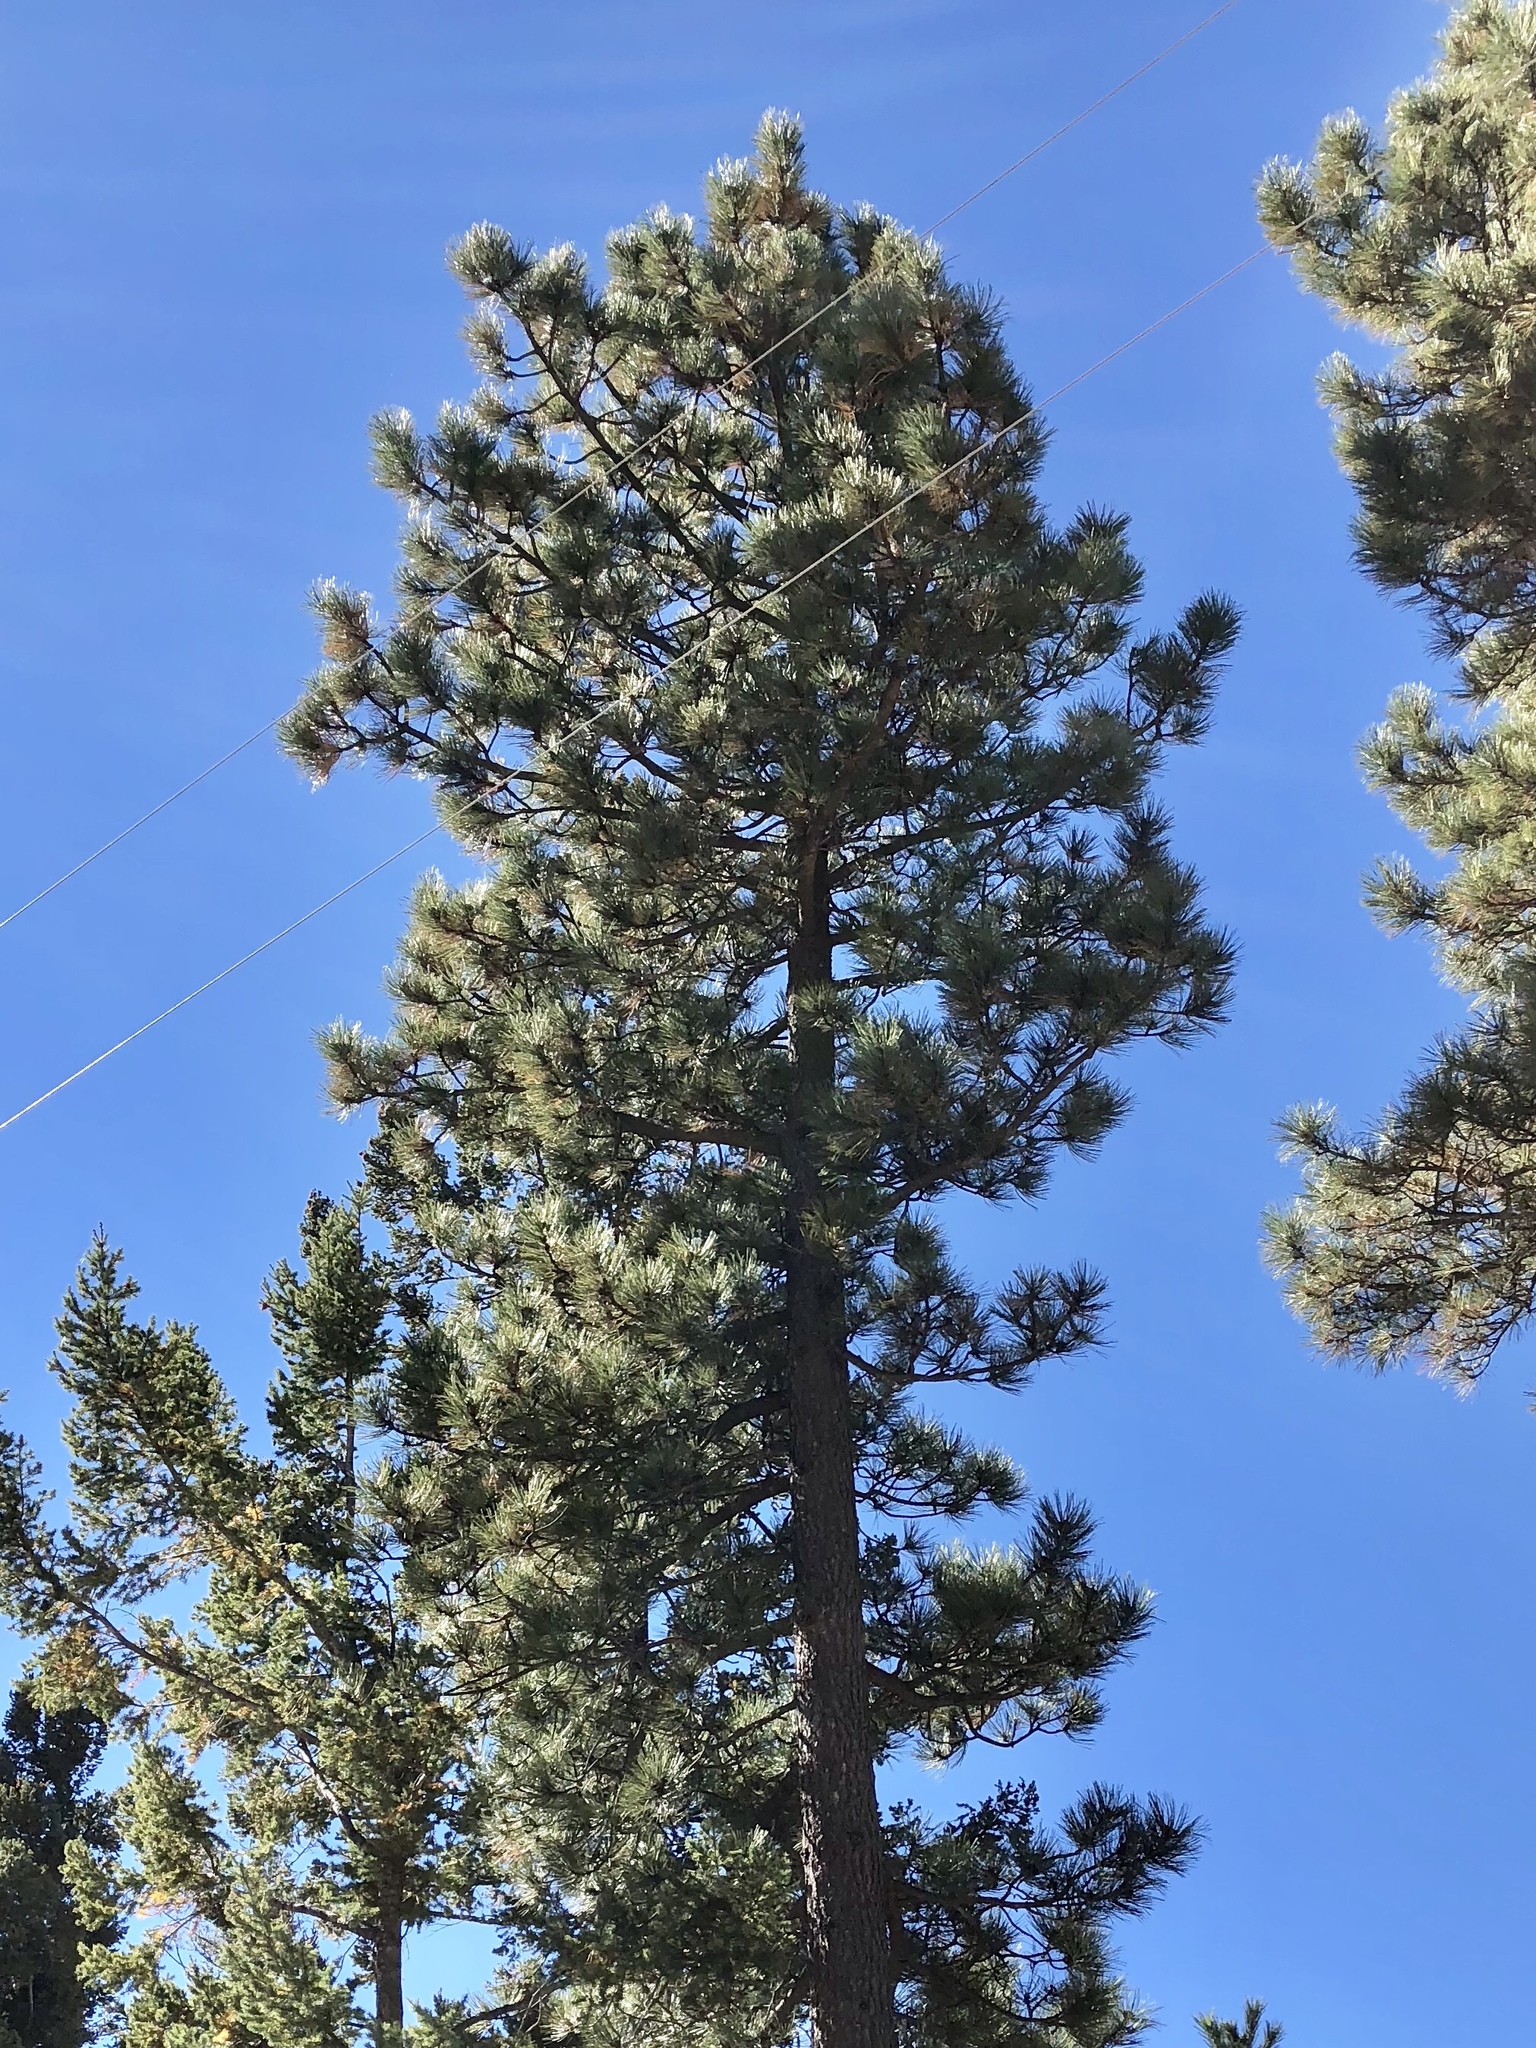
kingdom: Plantae
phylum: Tracheophyta
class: Pinopsida
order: Pinales
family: Pinaceae
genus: Pinus
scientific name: Pinus ponderosa
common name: Western yellow-pine
